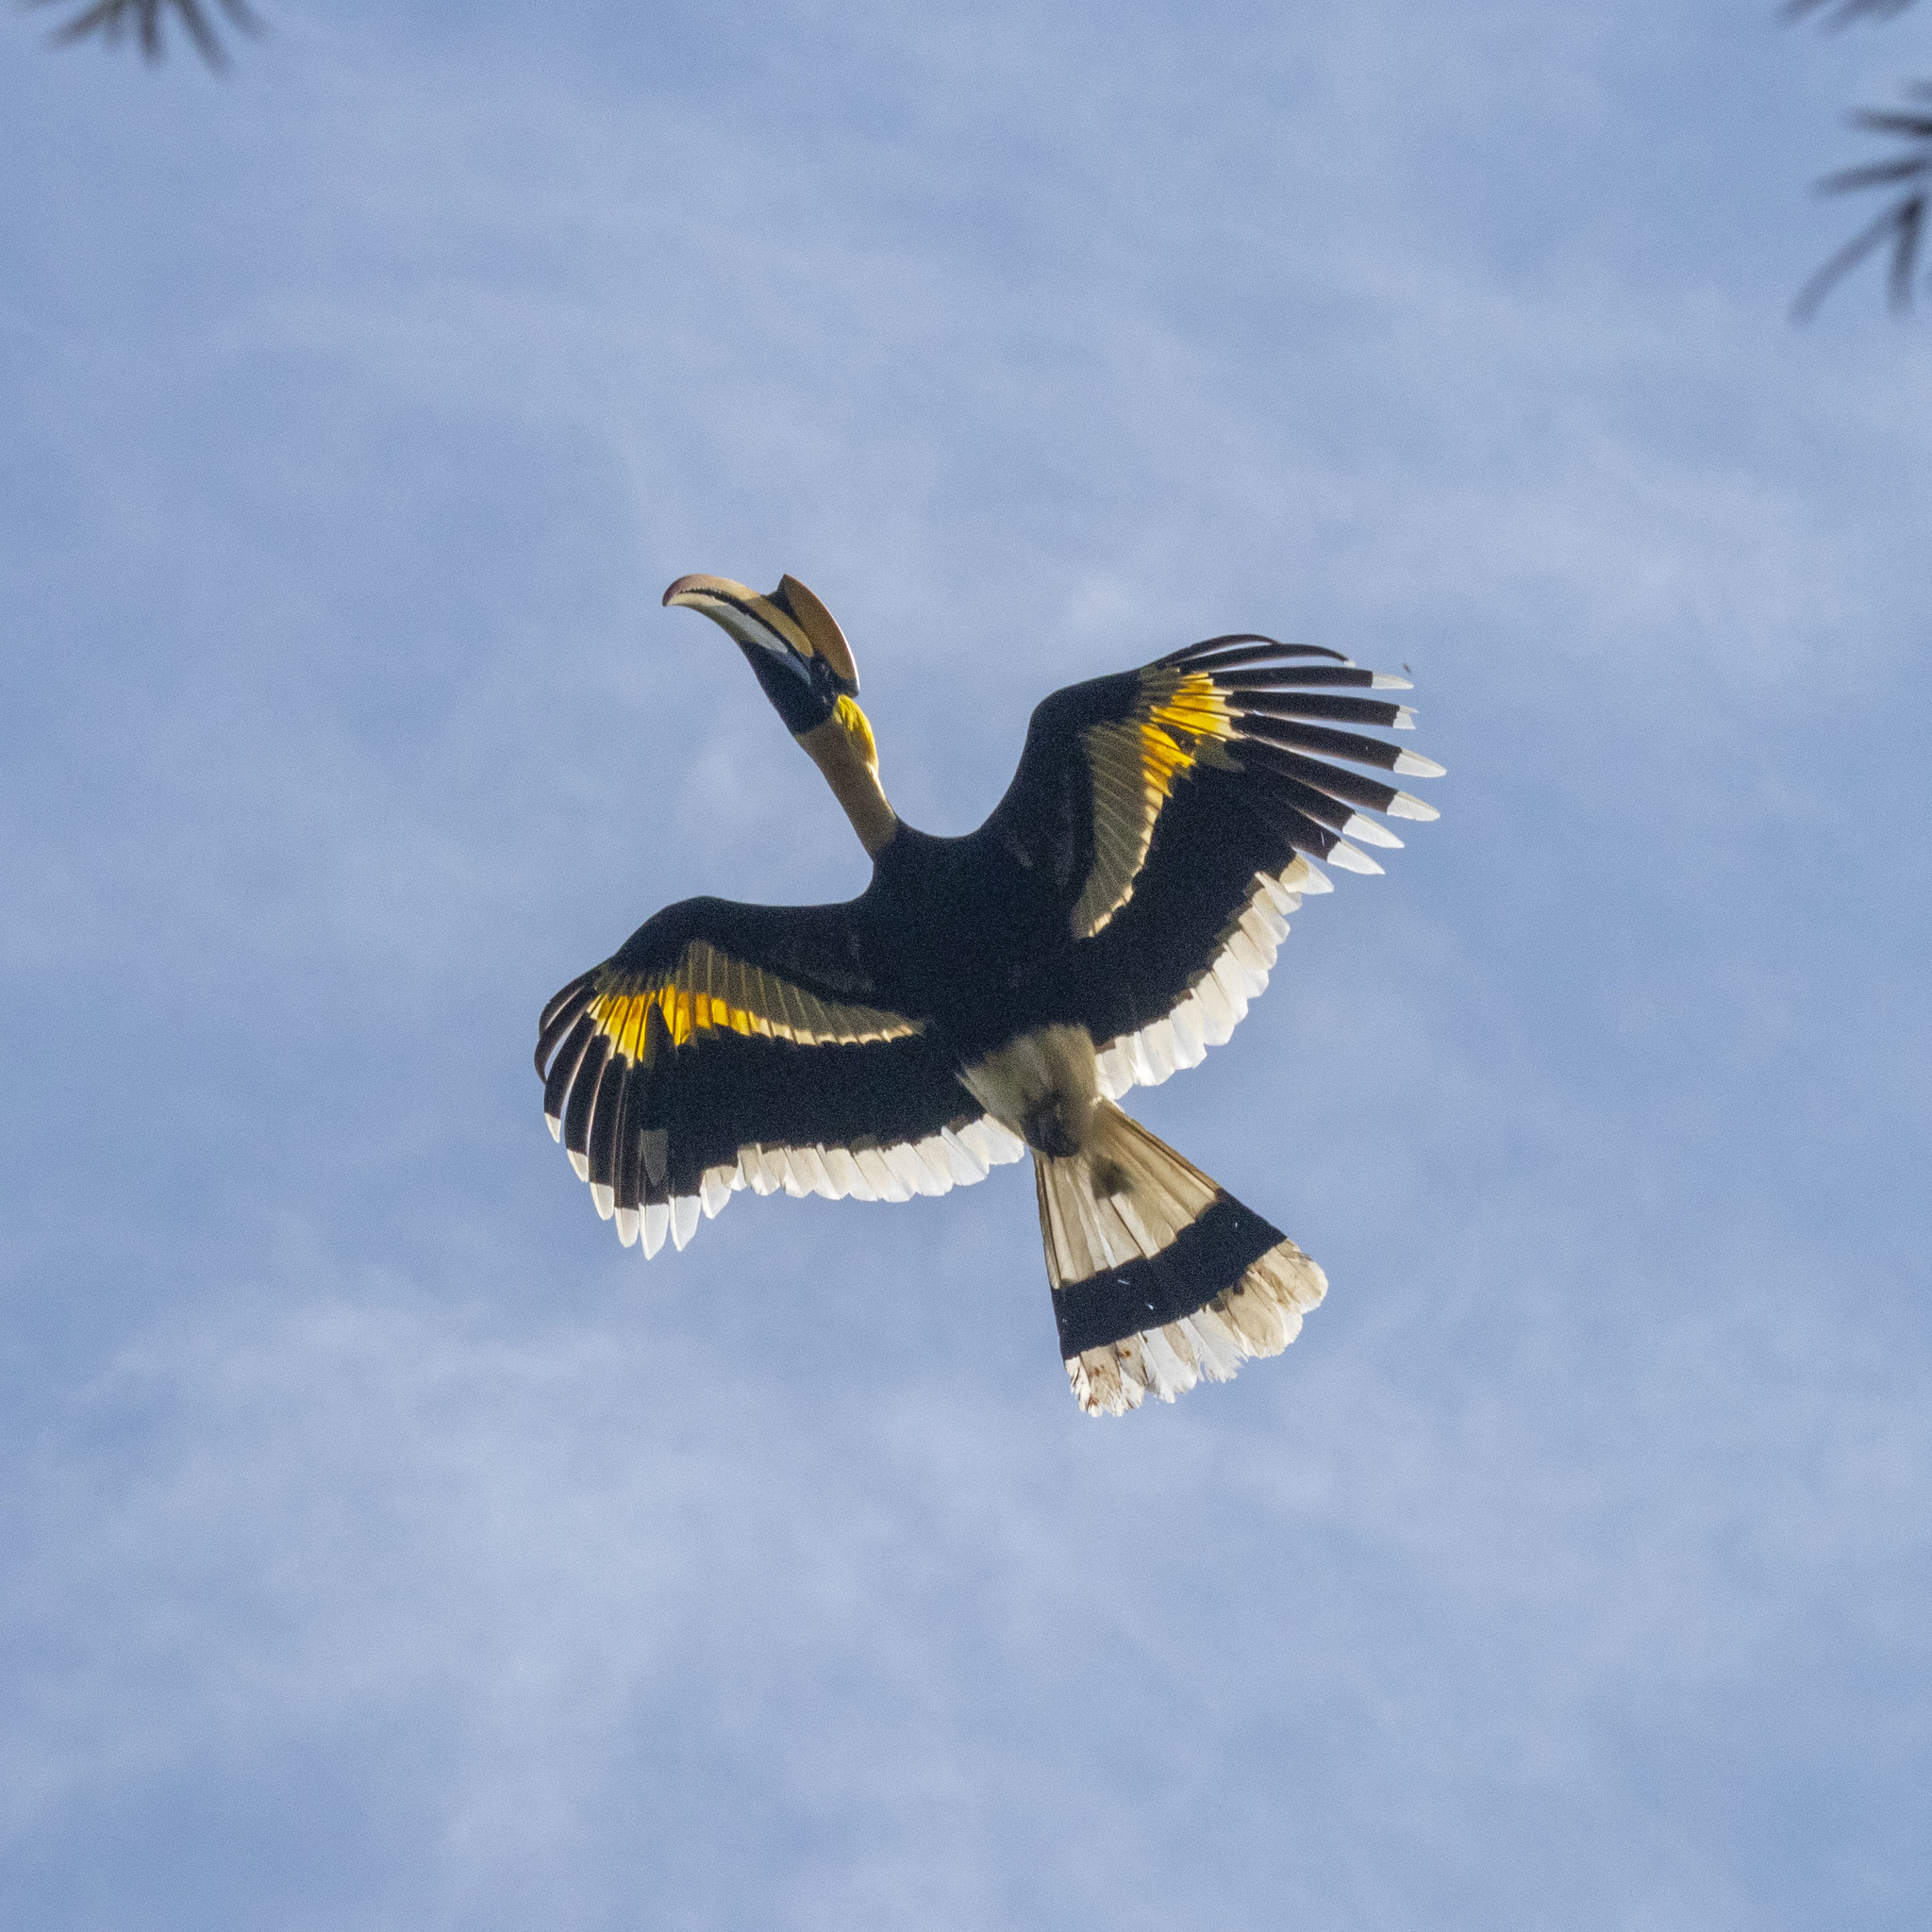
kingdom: Animalia
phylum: Chordata
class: Aves
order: Bucerotiformes
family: Bucerotidae
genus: Buceros
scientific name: Buceros bicornis
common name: Great hornbill
